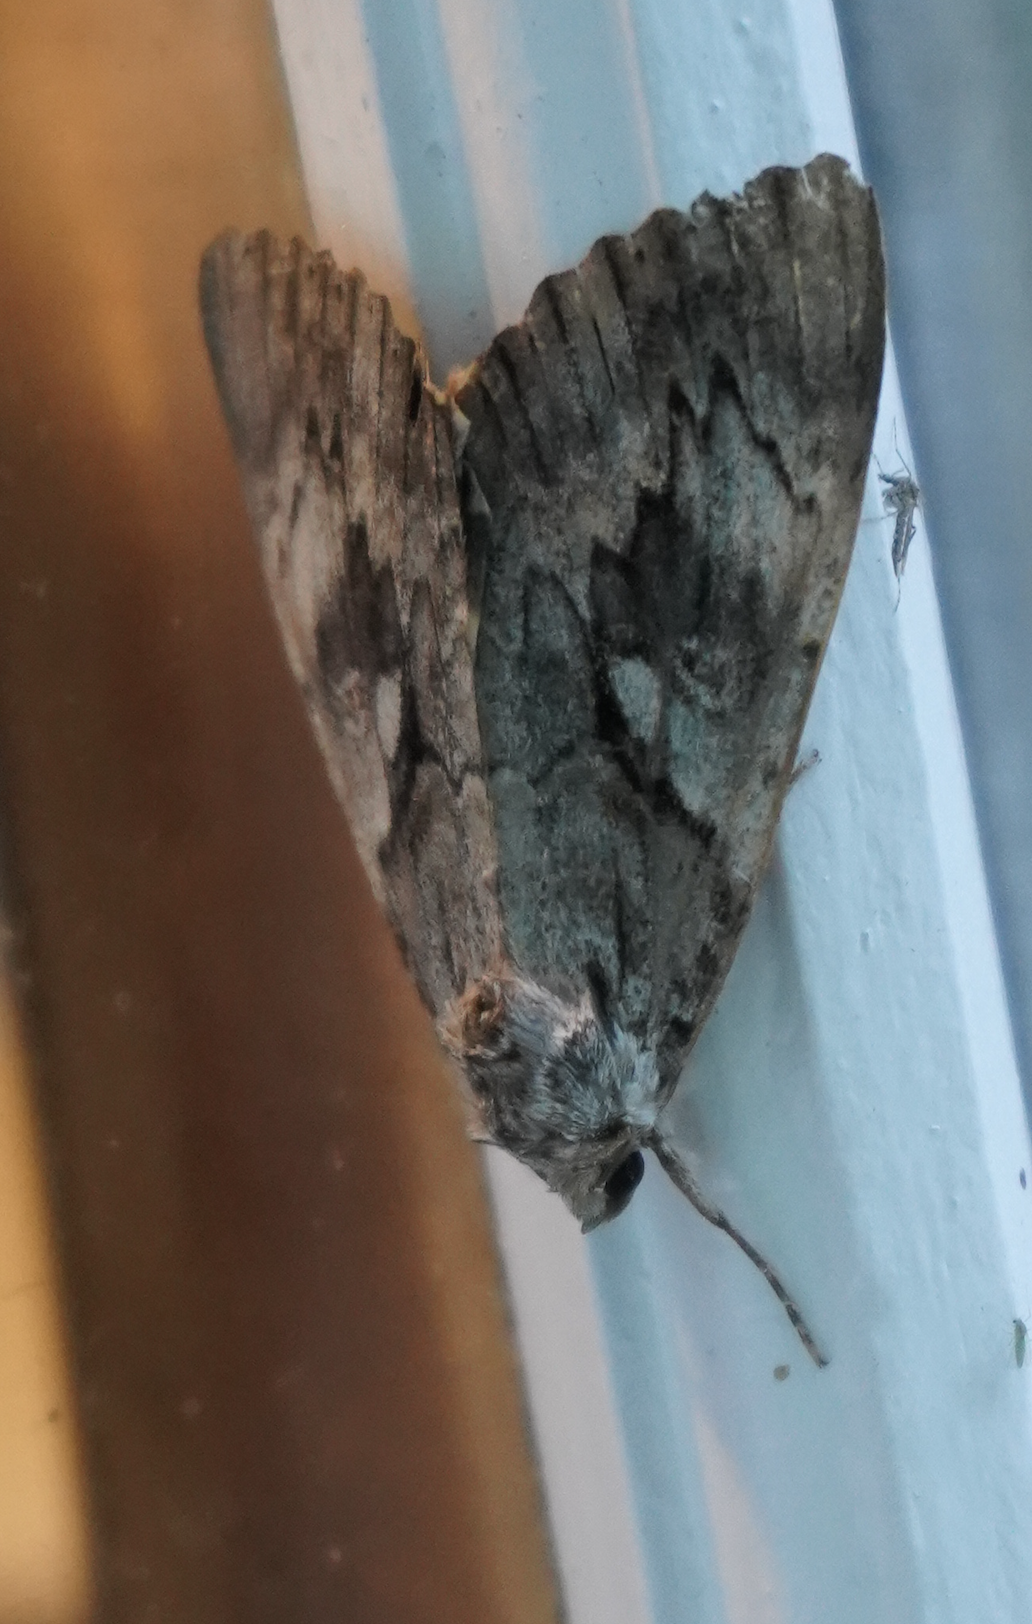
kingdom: Animalia
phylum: Arthropoda
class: Insecta
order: Lepidoptera
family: Erebidae
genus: Catocala
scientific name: Catocala cerogama
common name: Yellow banded underwing
